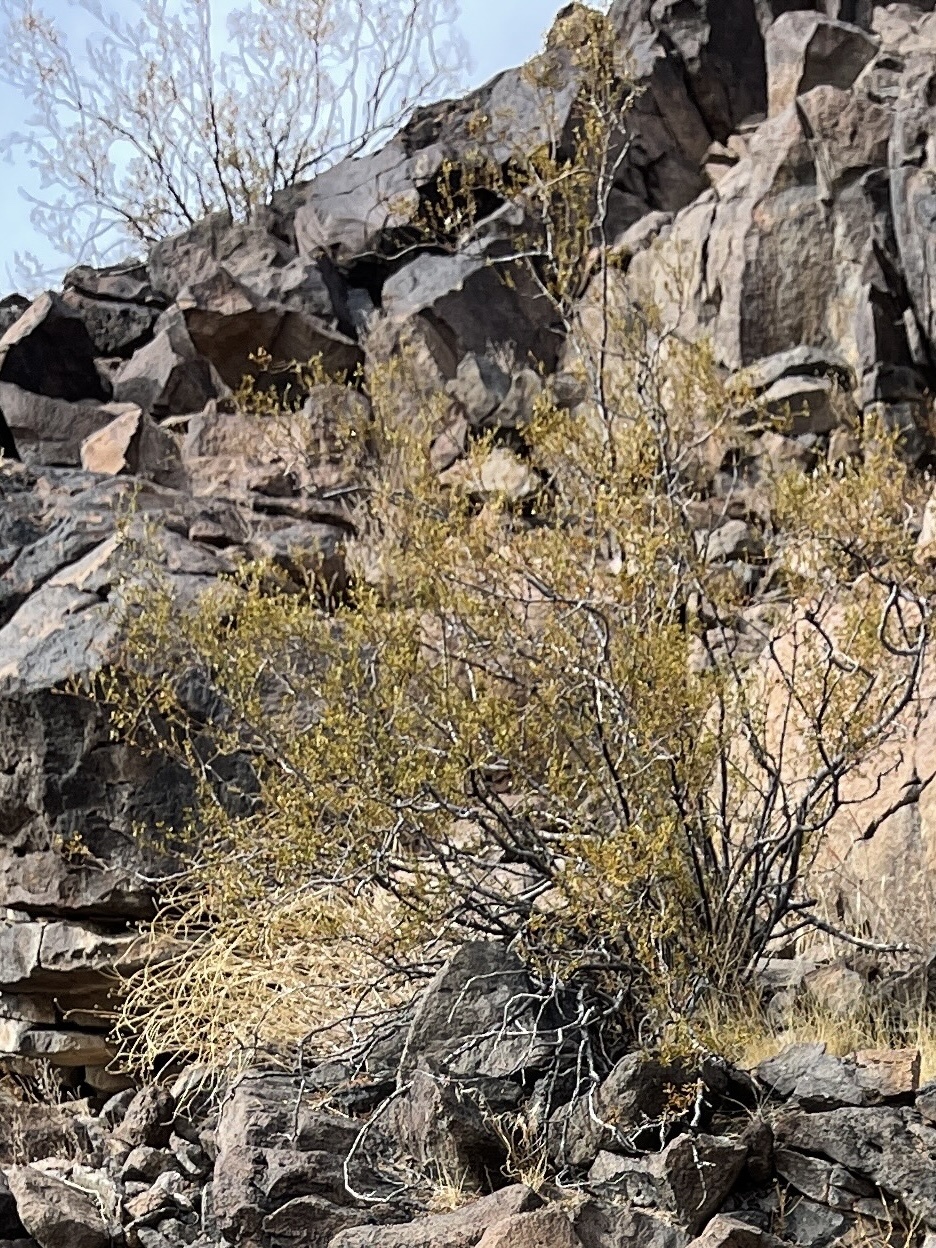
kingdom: Plantae
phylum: Tracheophyta
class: Magnoliopsida
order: Zygophyllales
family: Zygophyllaceae
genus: Larrea
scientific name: Larrea tridentata
